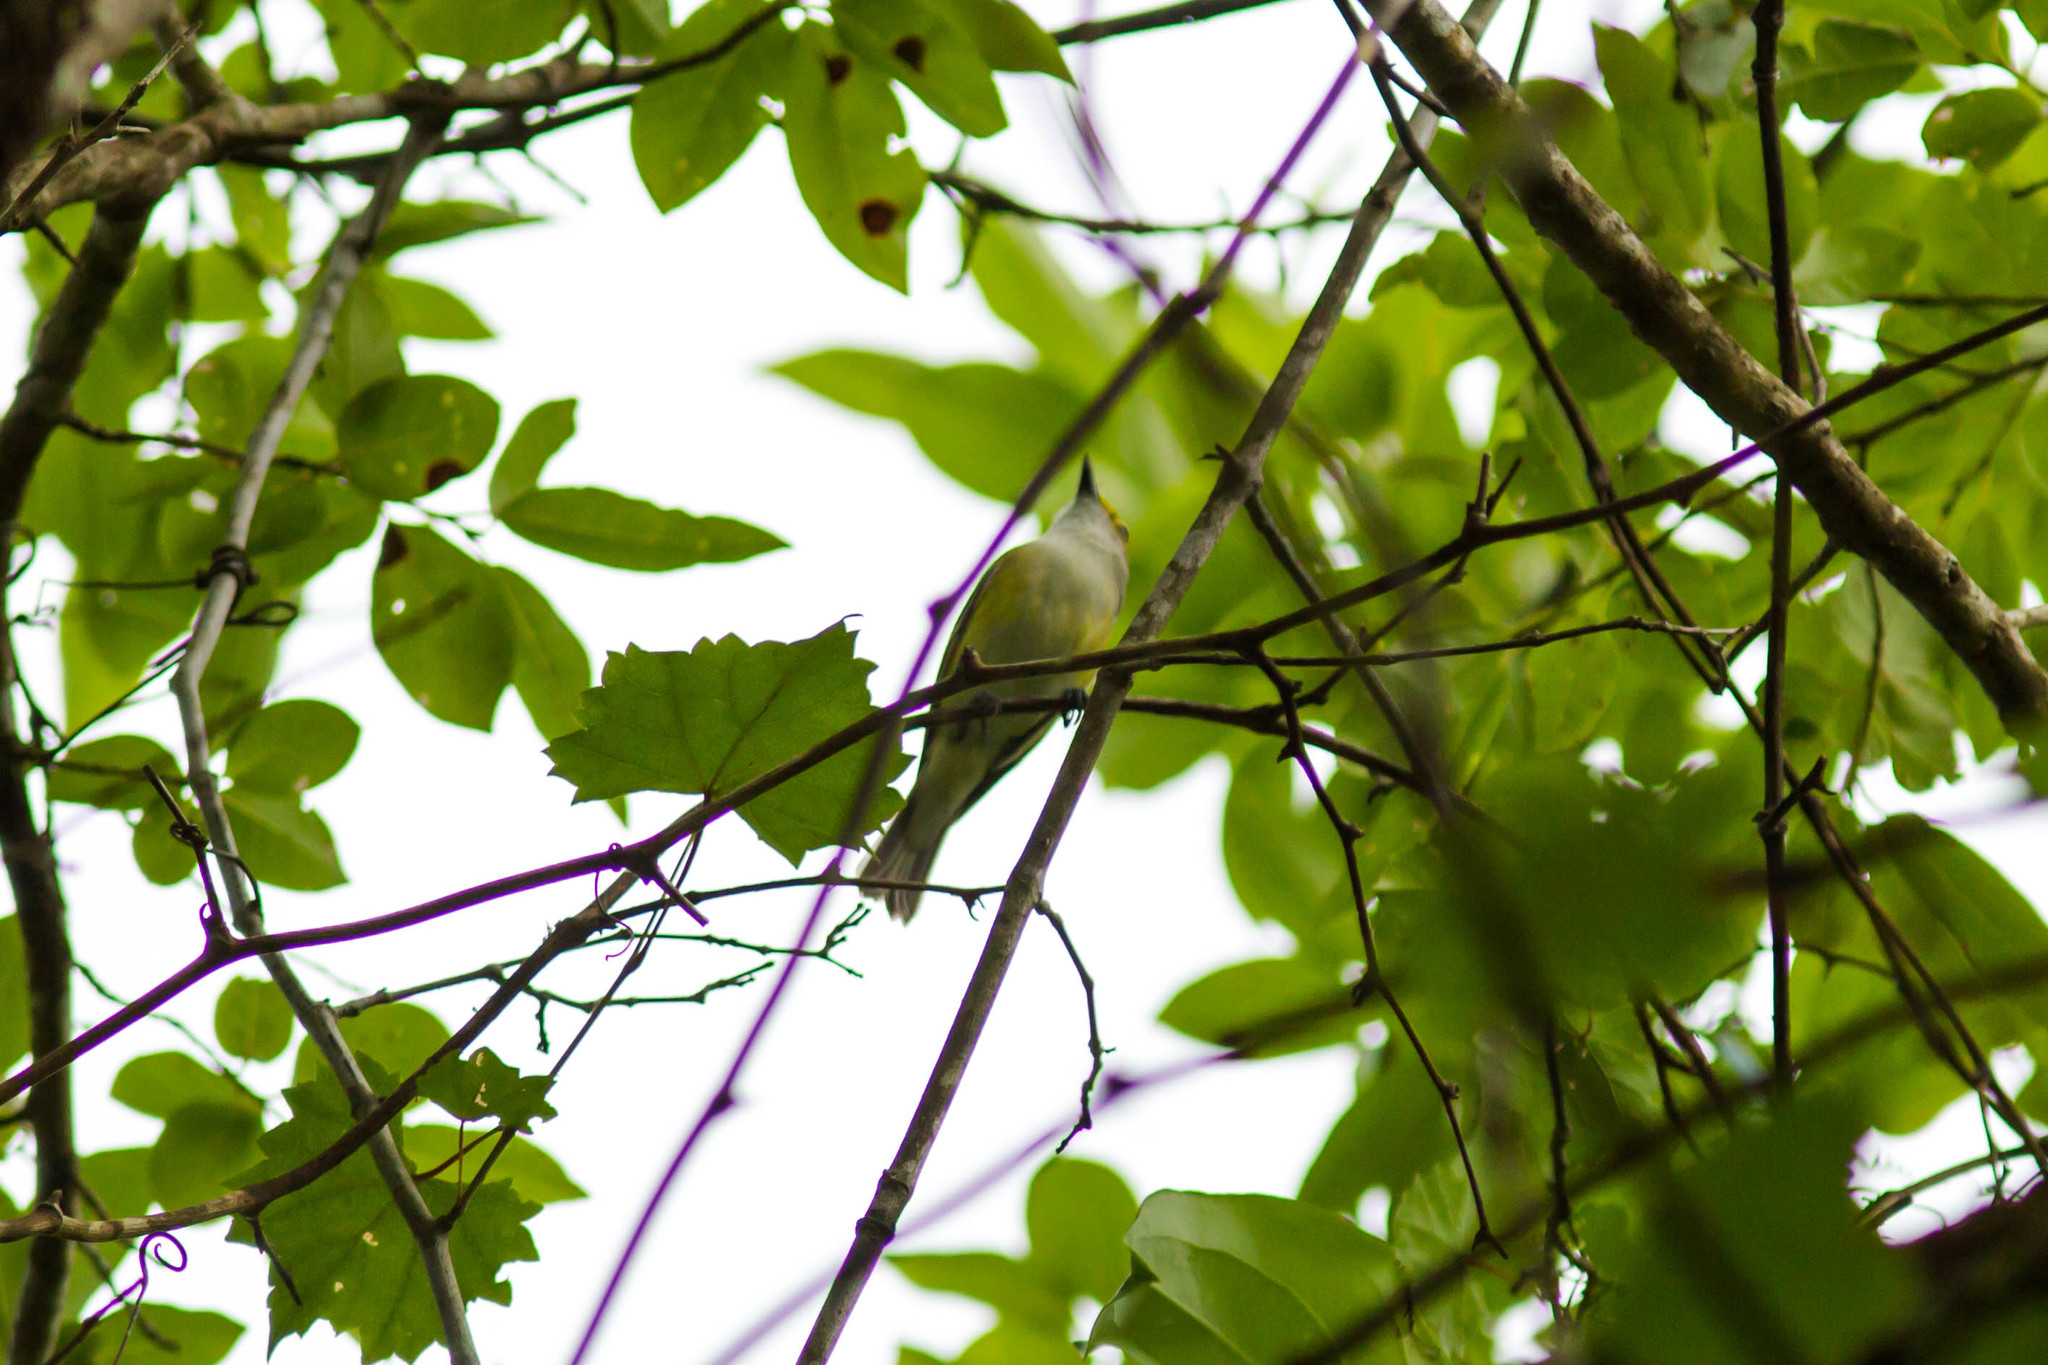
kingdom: Animalia
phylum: Chordata
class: Aves
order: Passeriformes
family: Vireonidae
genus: Vireo
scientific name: Vireo griseus
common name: White-eyed vireo
